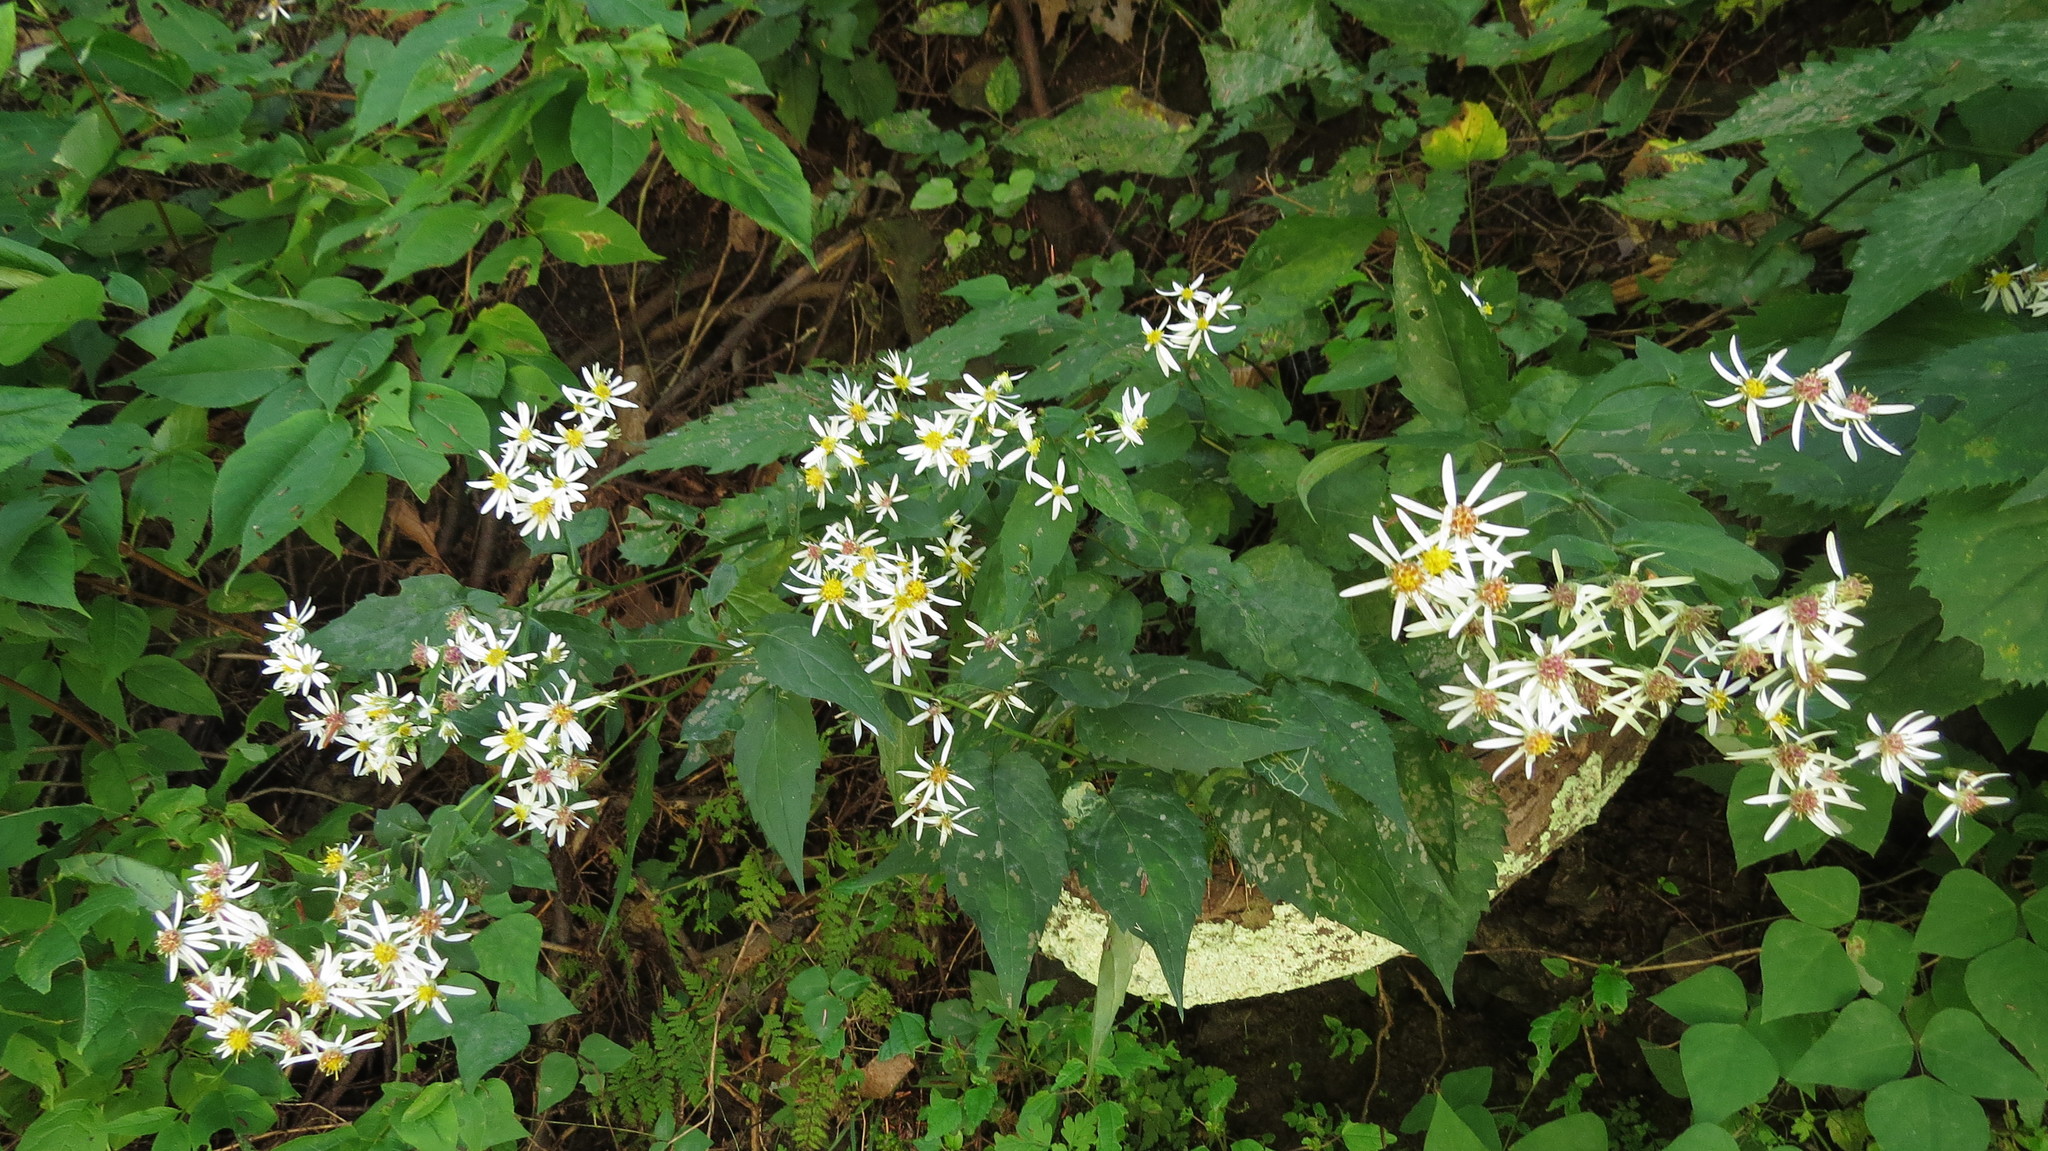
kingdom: Plantae
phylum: Tracheophyta
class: Magnoliopsida
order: Asterales
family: Asteraceae
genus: Eurybia
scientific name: Eurybia divaricata
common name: White wood aster
